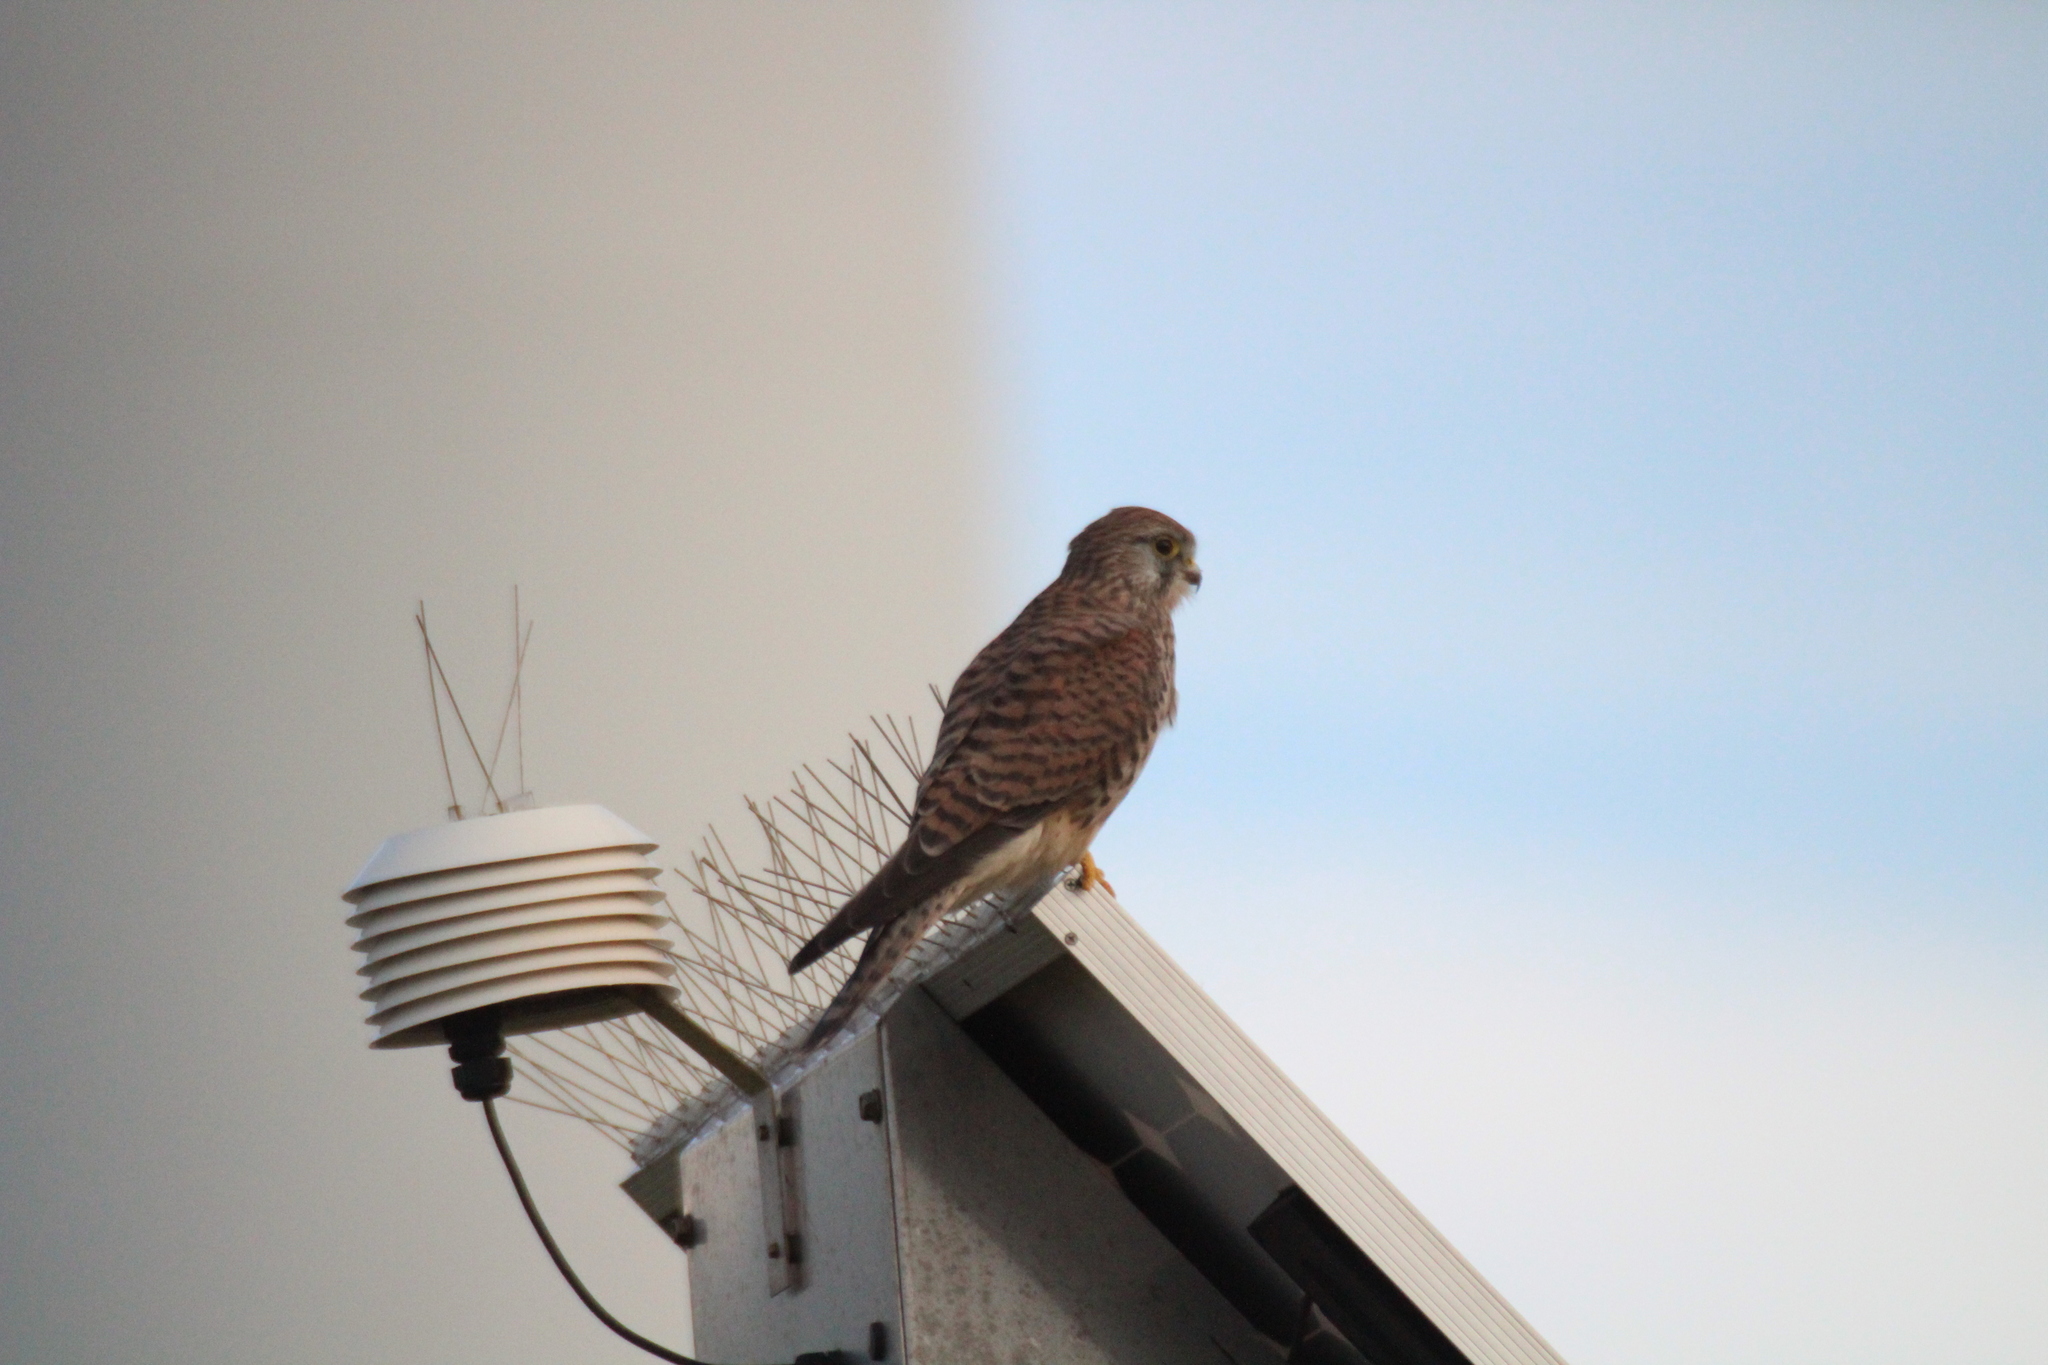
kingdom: Animalia
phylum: Chordata
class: Aves
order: Falconiformes
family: Falconidae
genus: Falco
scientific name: Falco tinnunculus
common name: Common kestrel
